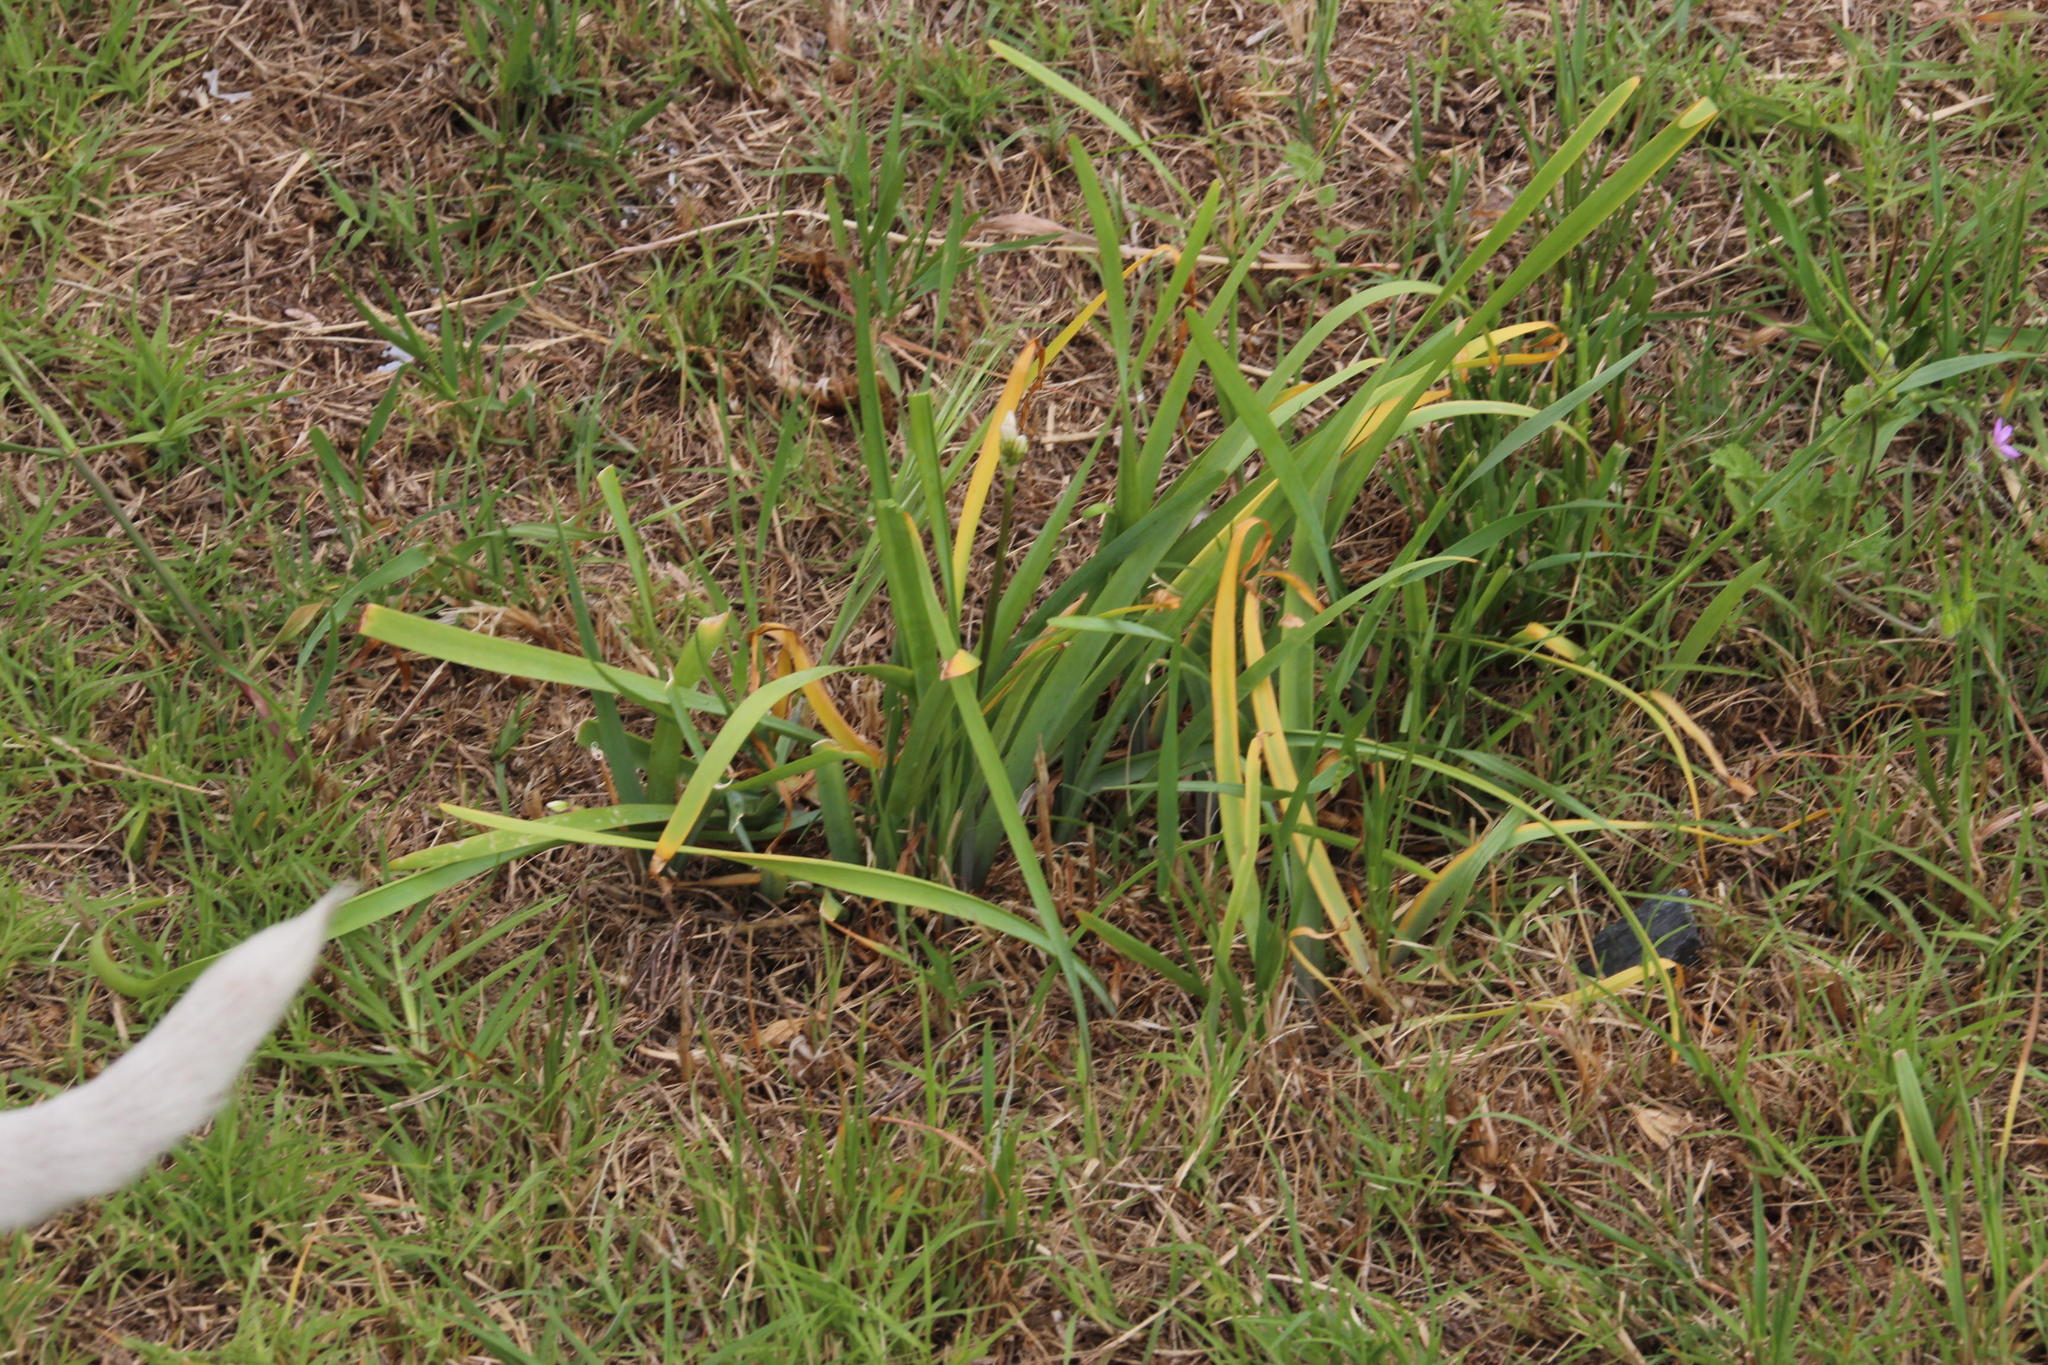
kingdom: Plantae
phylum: Tracheophyta
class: Liliopsida
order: Asparagales
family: Amaryllidaceae
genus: Nothoscordum
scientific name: Nothoscordum gracile
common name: Slender false garlic
